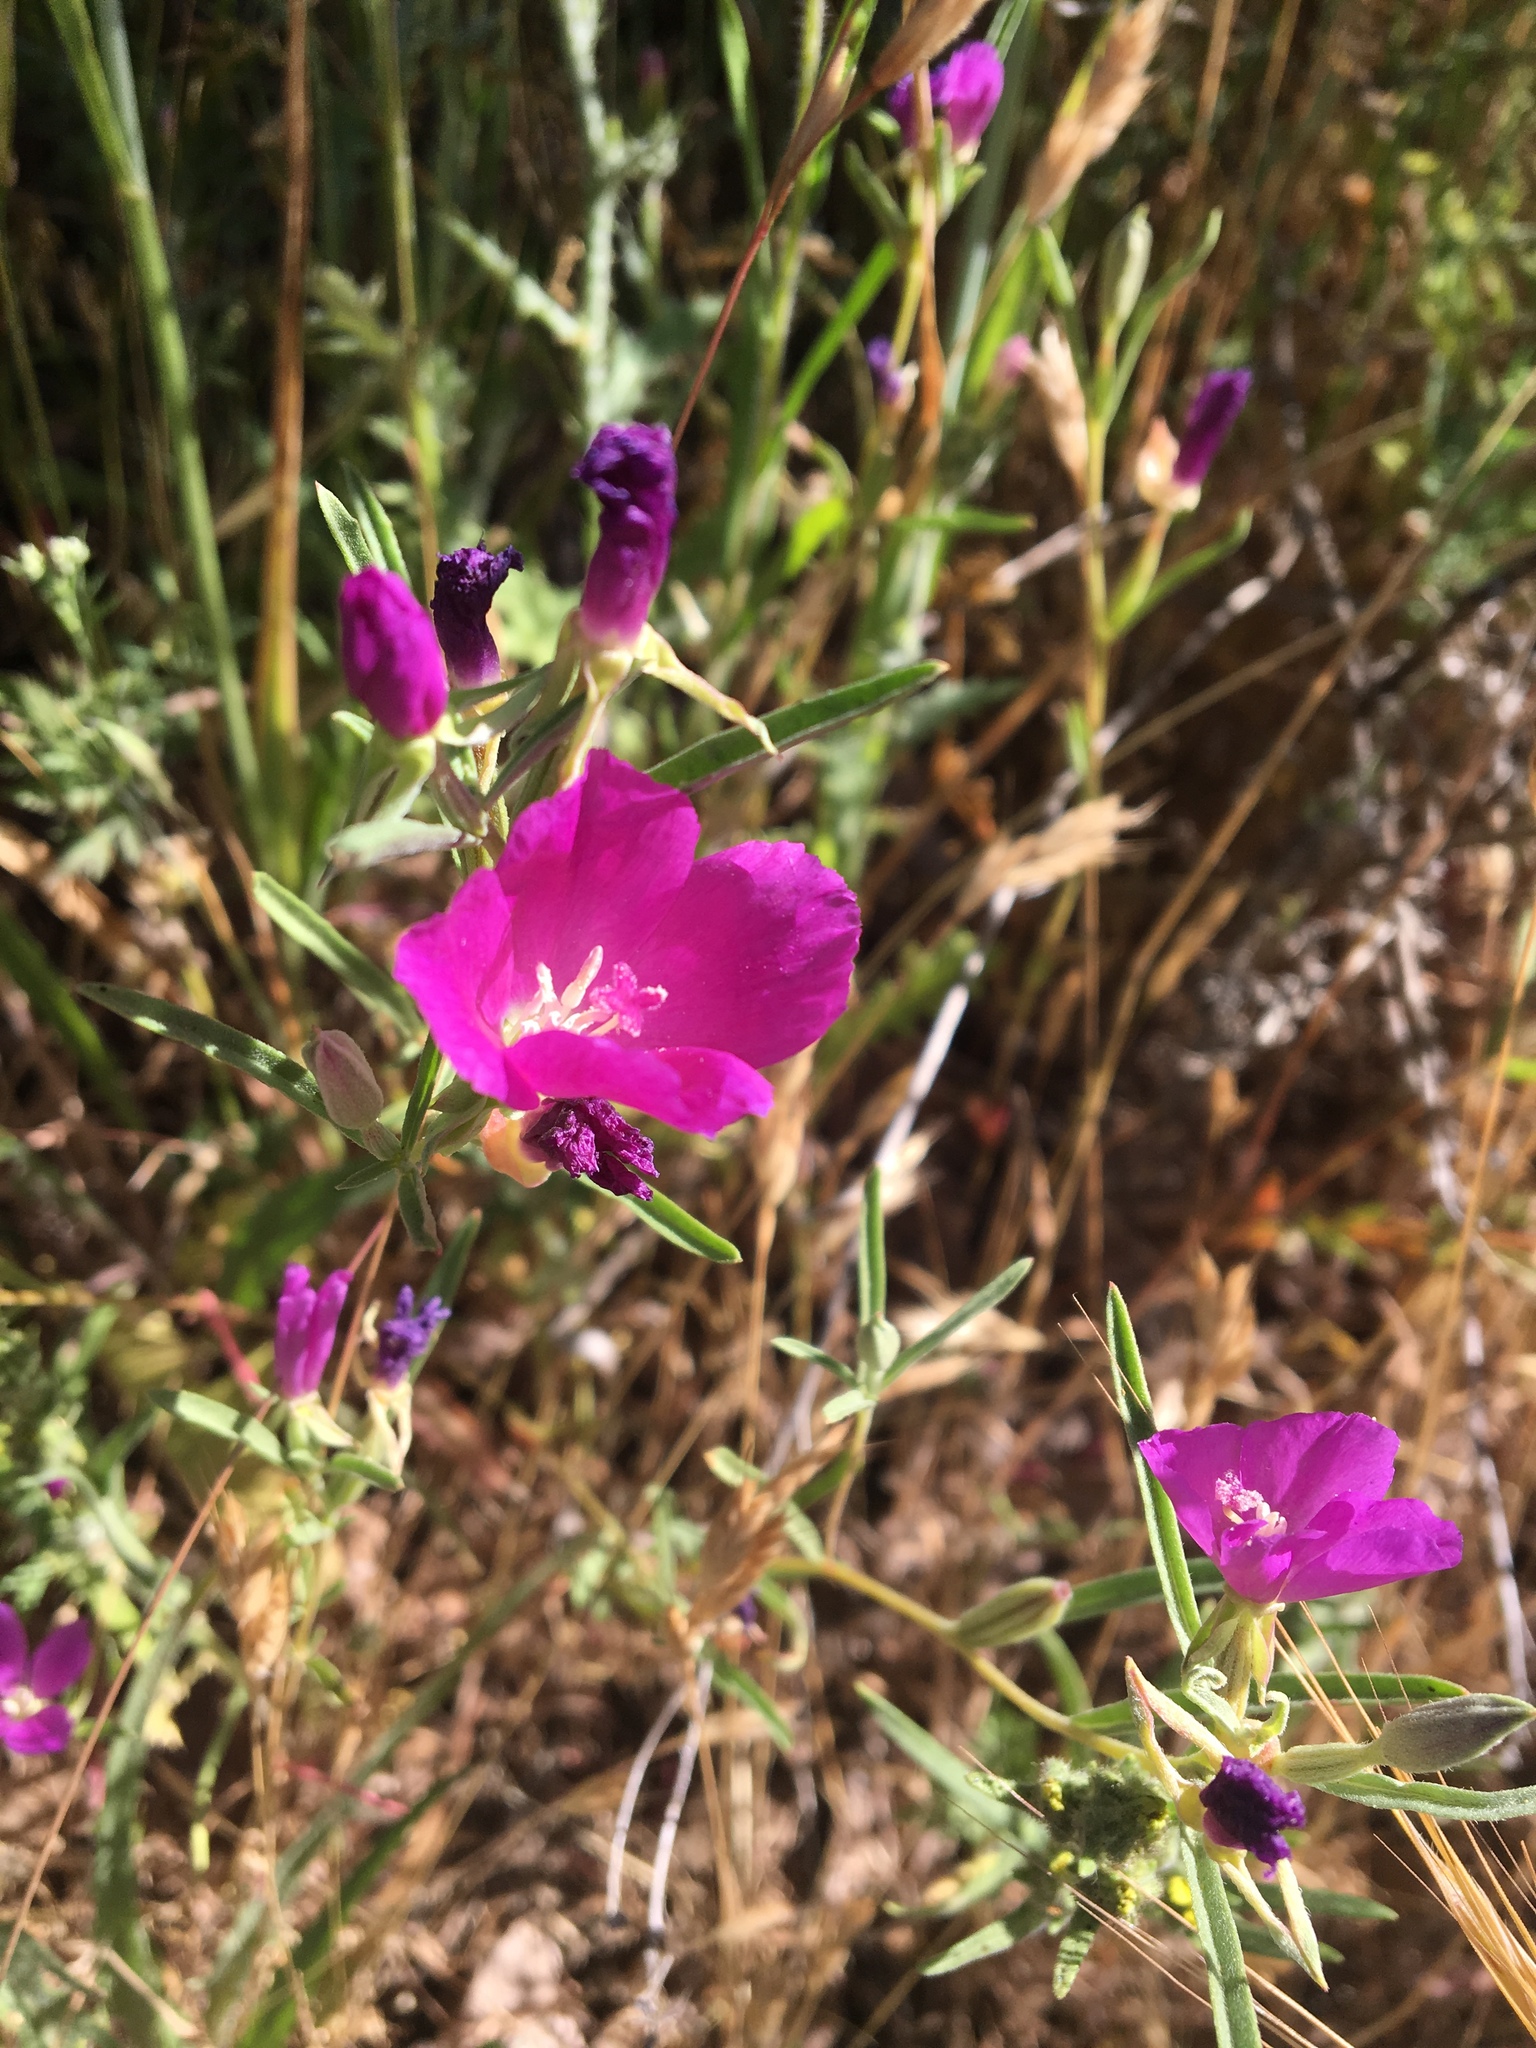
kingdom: Plantae
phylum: Tracheophyta
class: Magnoliopsida
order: Myrtales
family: Onagraceae
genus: Clarkia
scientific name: Clarkia purpurea
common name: Purple clarkia
